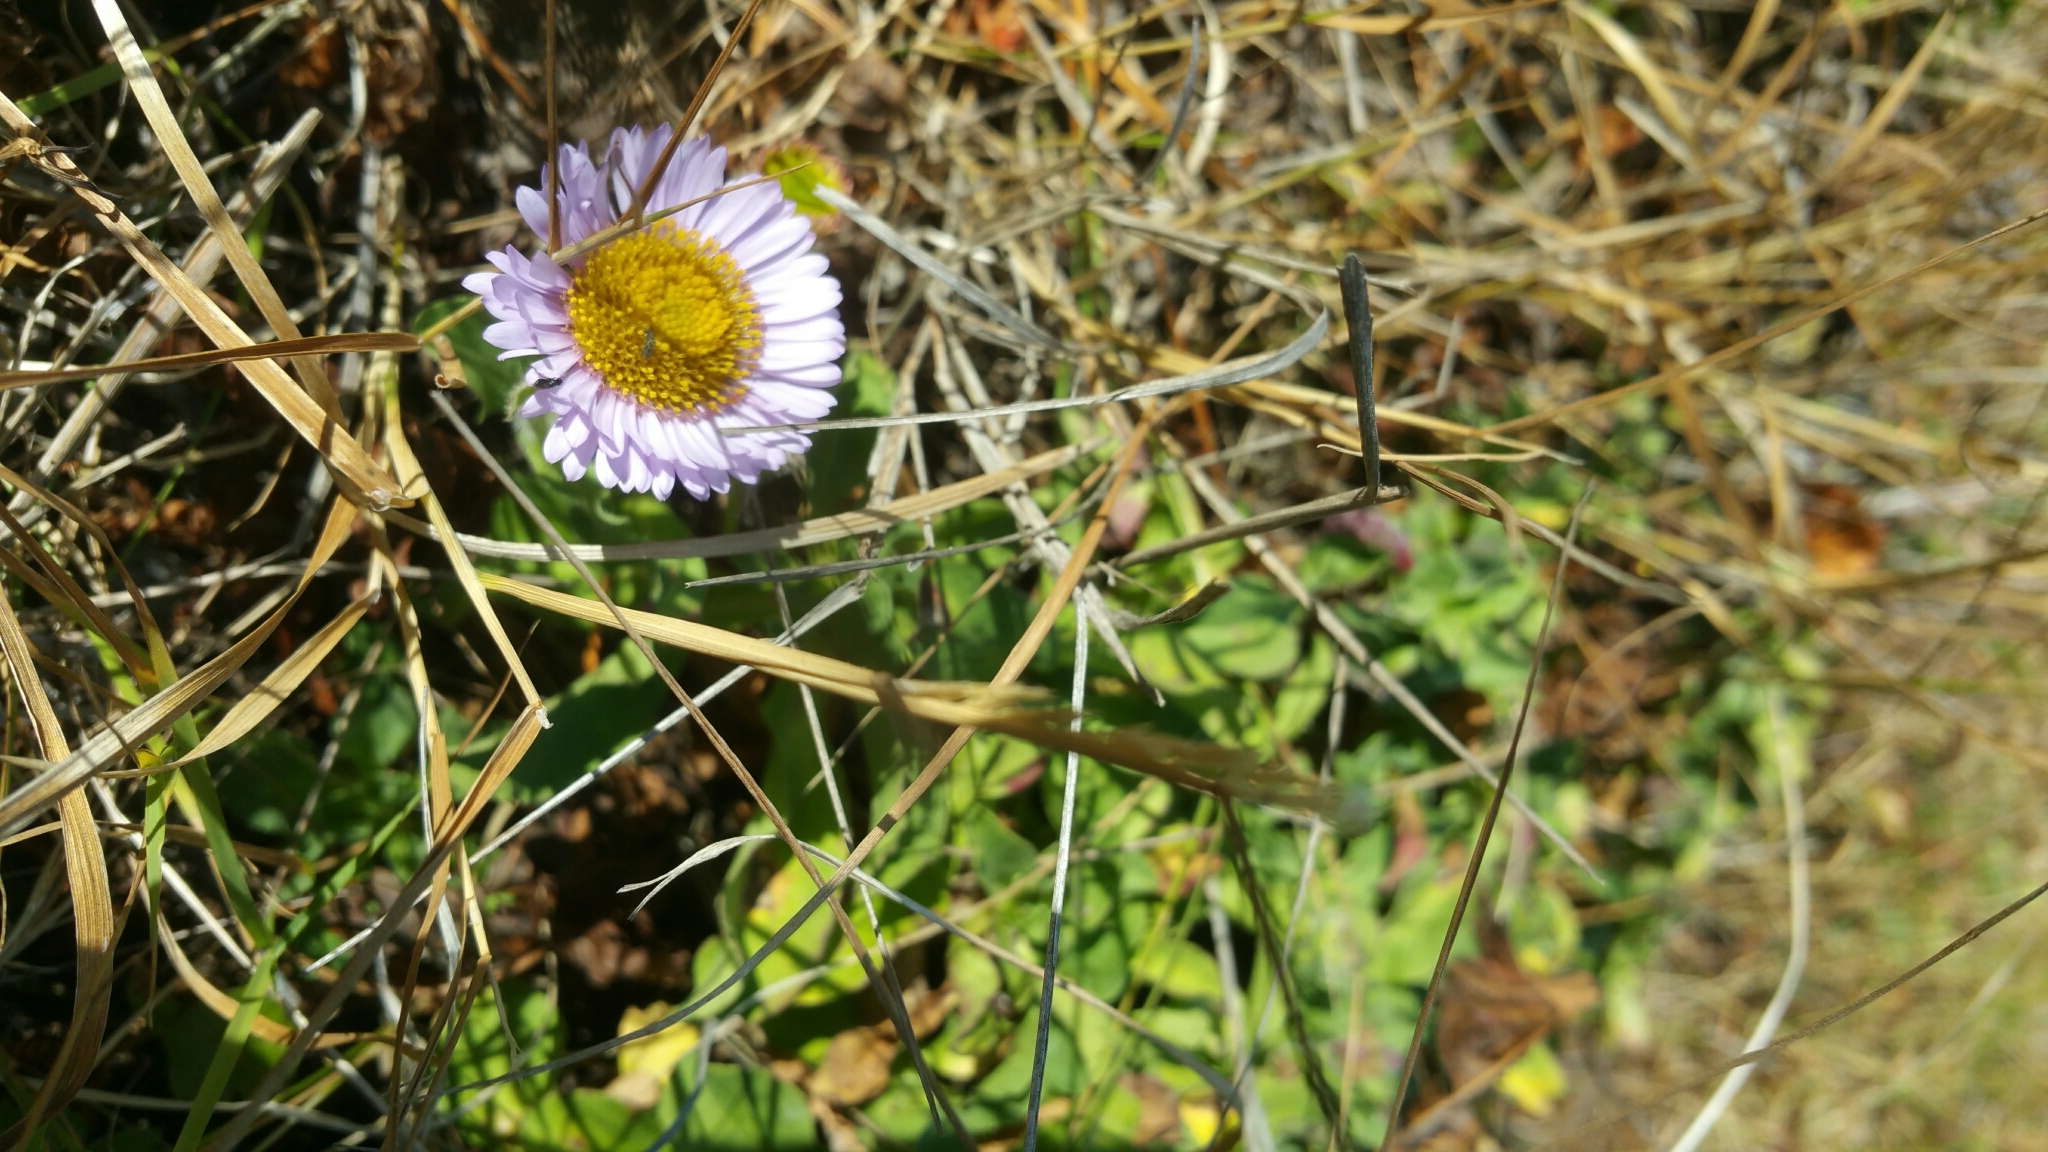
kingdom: Plantae
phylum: Tracheophyta
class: Magnoliopsida
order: Asterales
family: Asteraceae
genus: Erigeron
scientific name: Erigeron glaucus
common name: Seaside daisy
